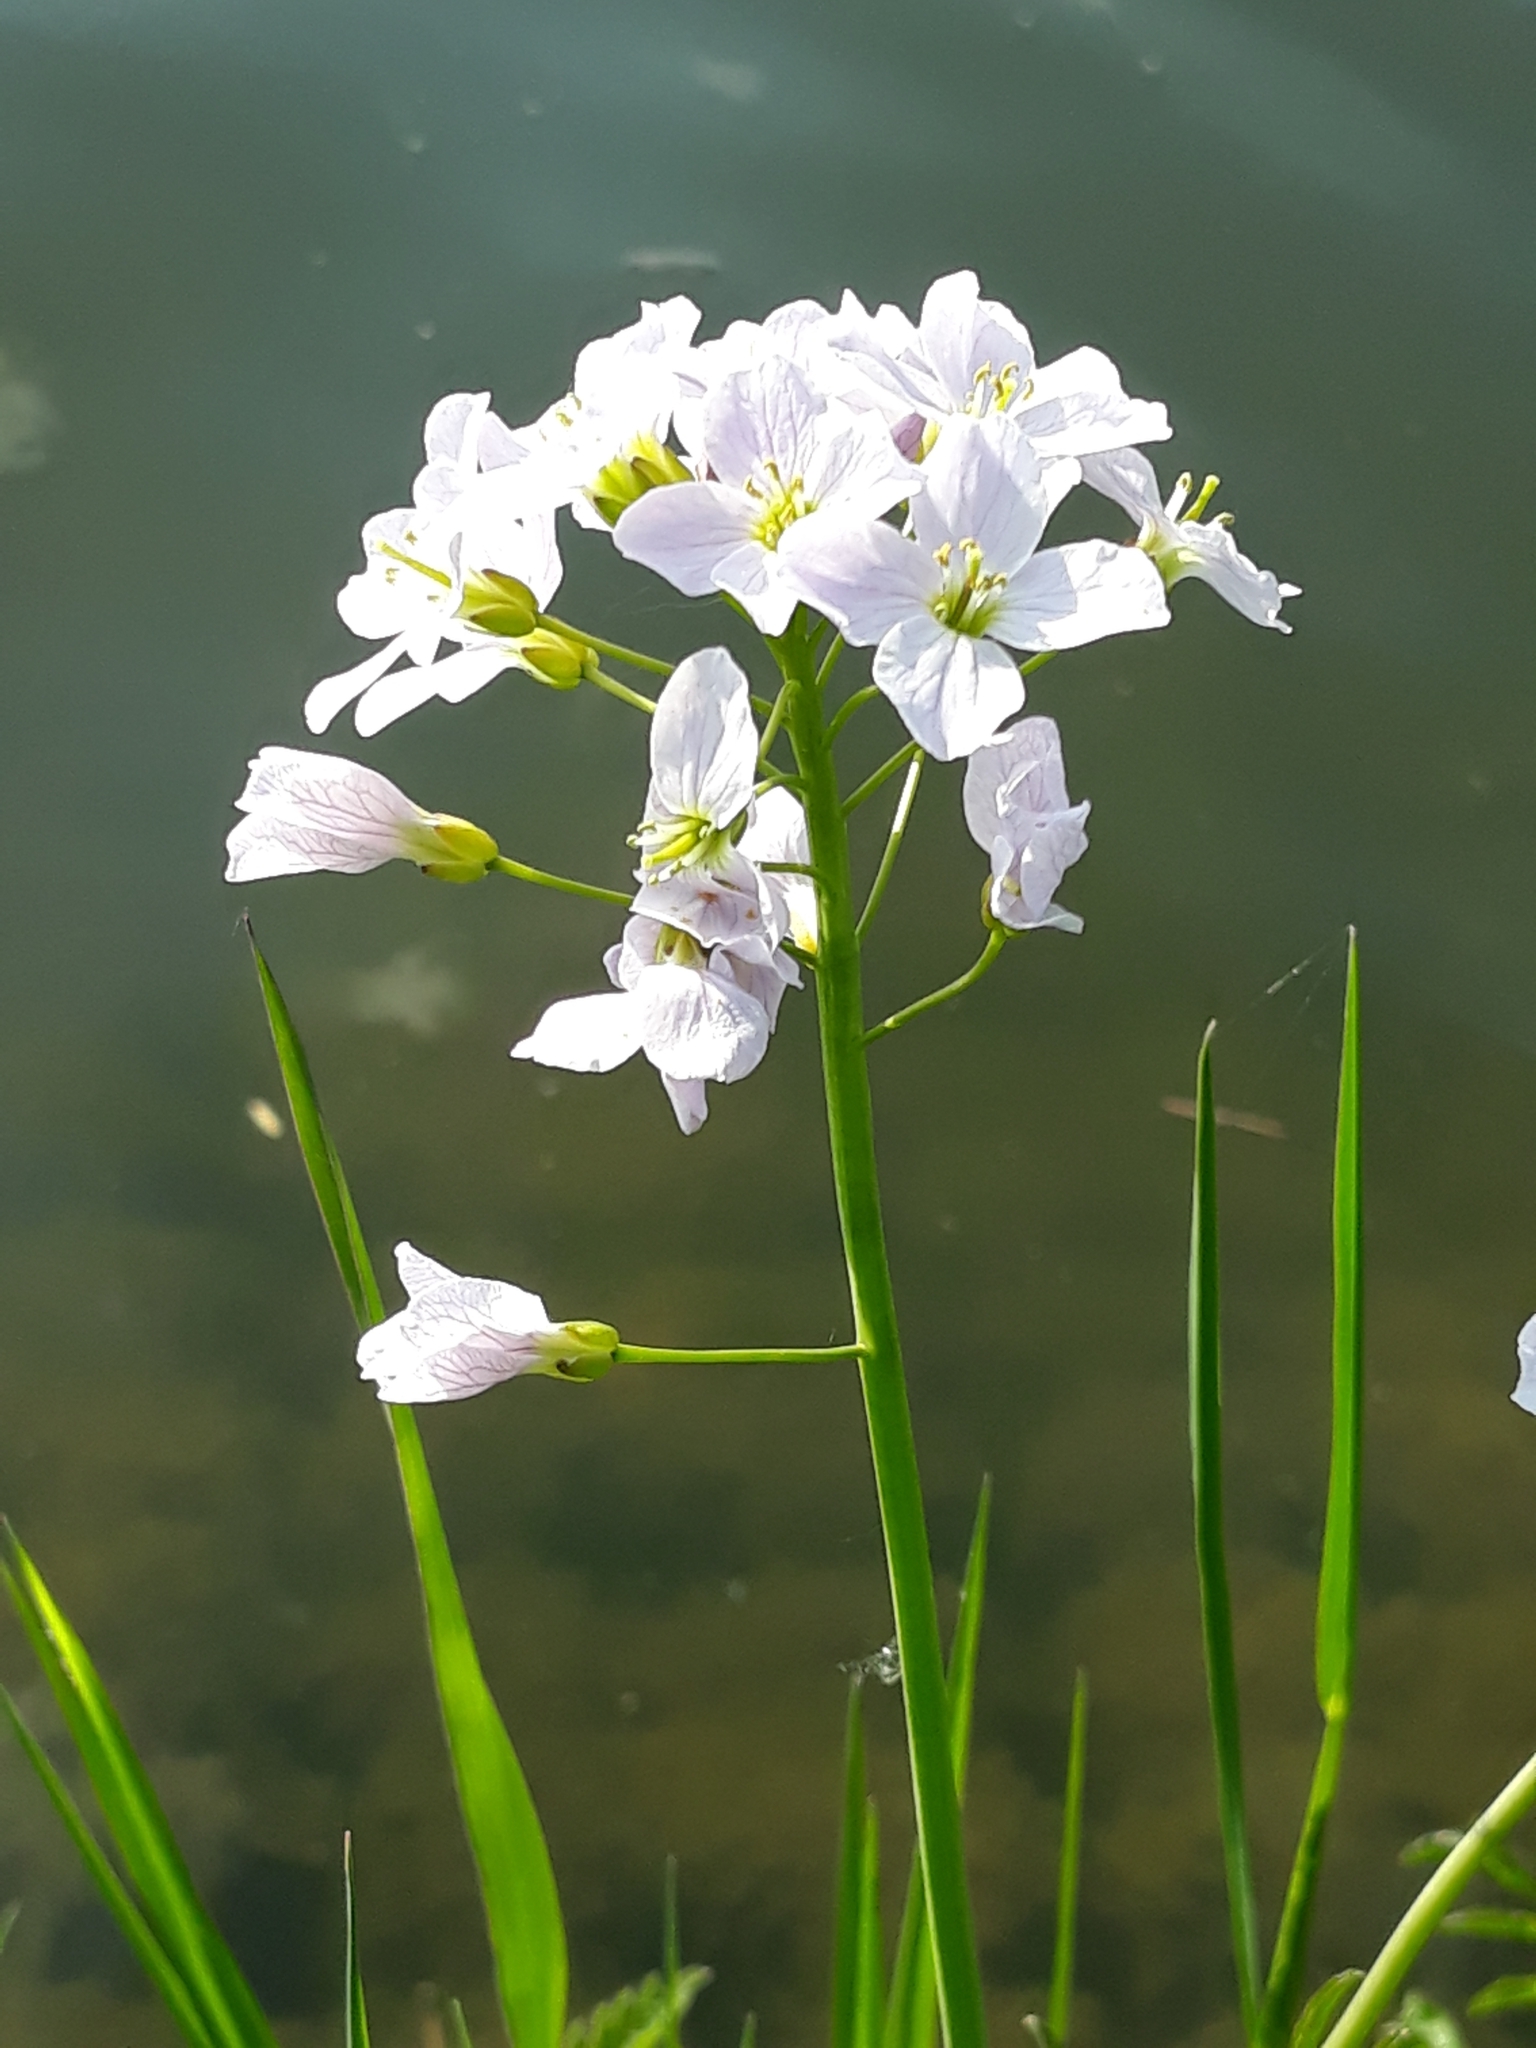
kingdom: Plantae
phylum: Tracheophyta
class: Magnoliopsida
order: Brassicales
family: Brassicaceae
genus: Cardamine
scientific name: Cardamine pratensis
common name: Cuckoo flower
